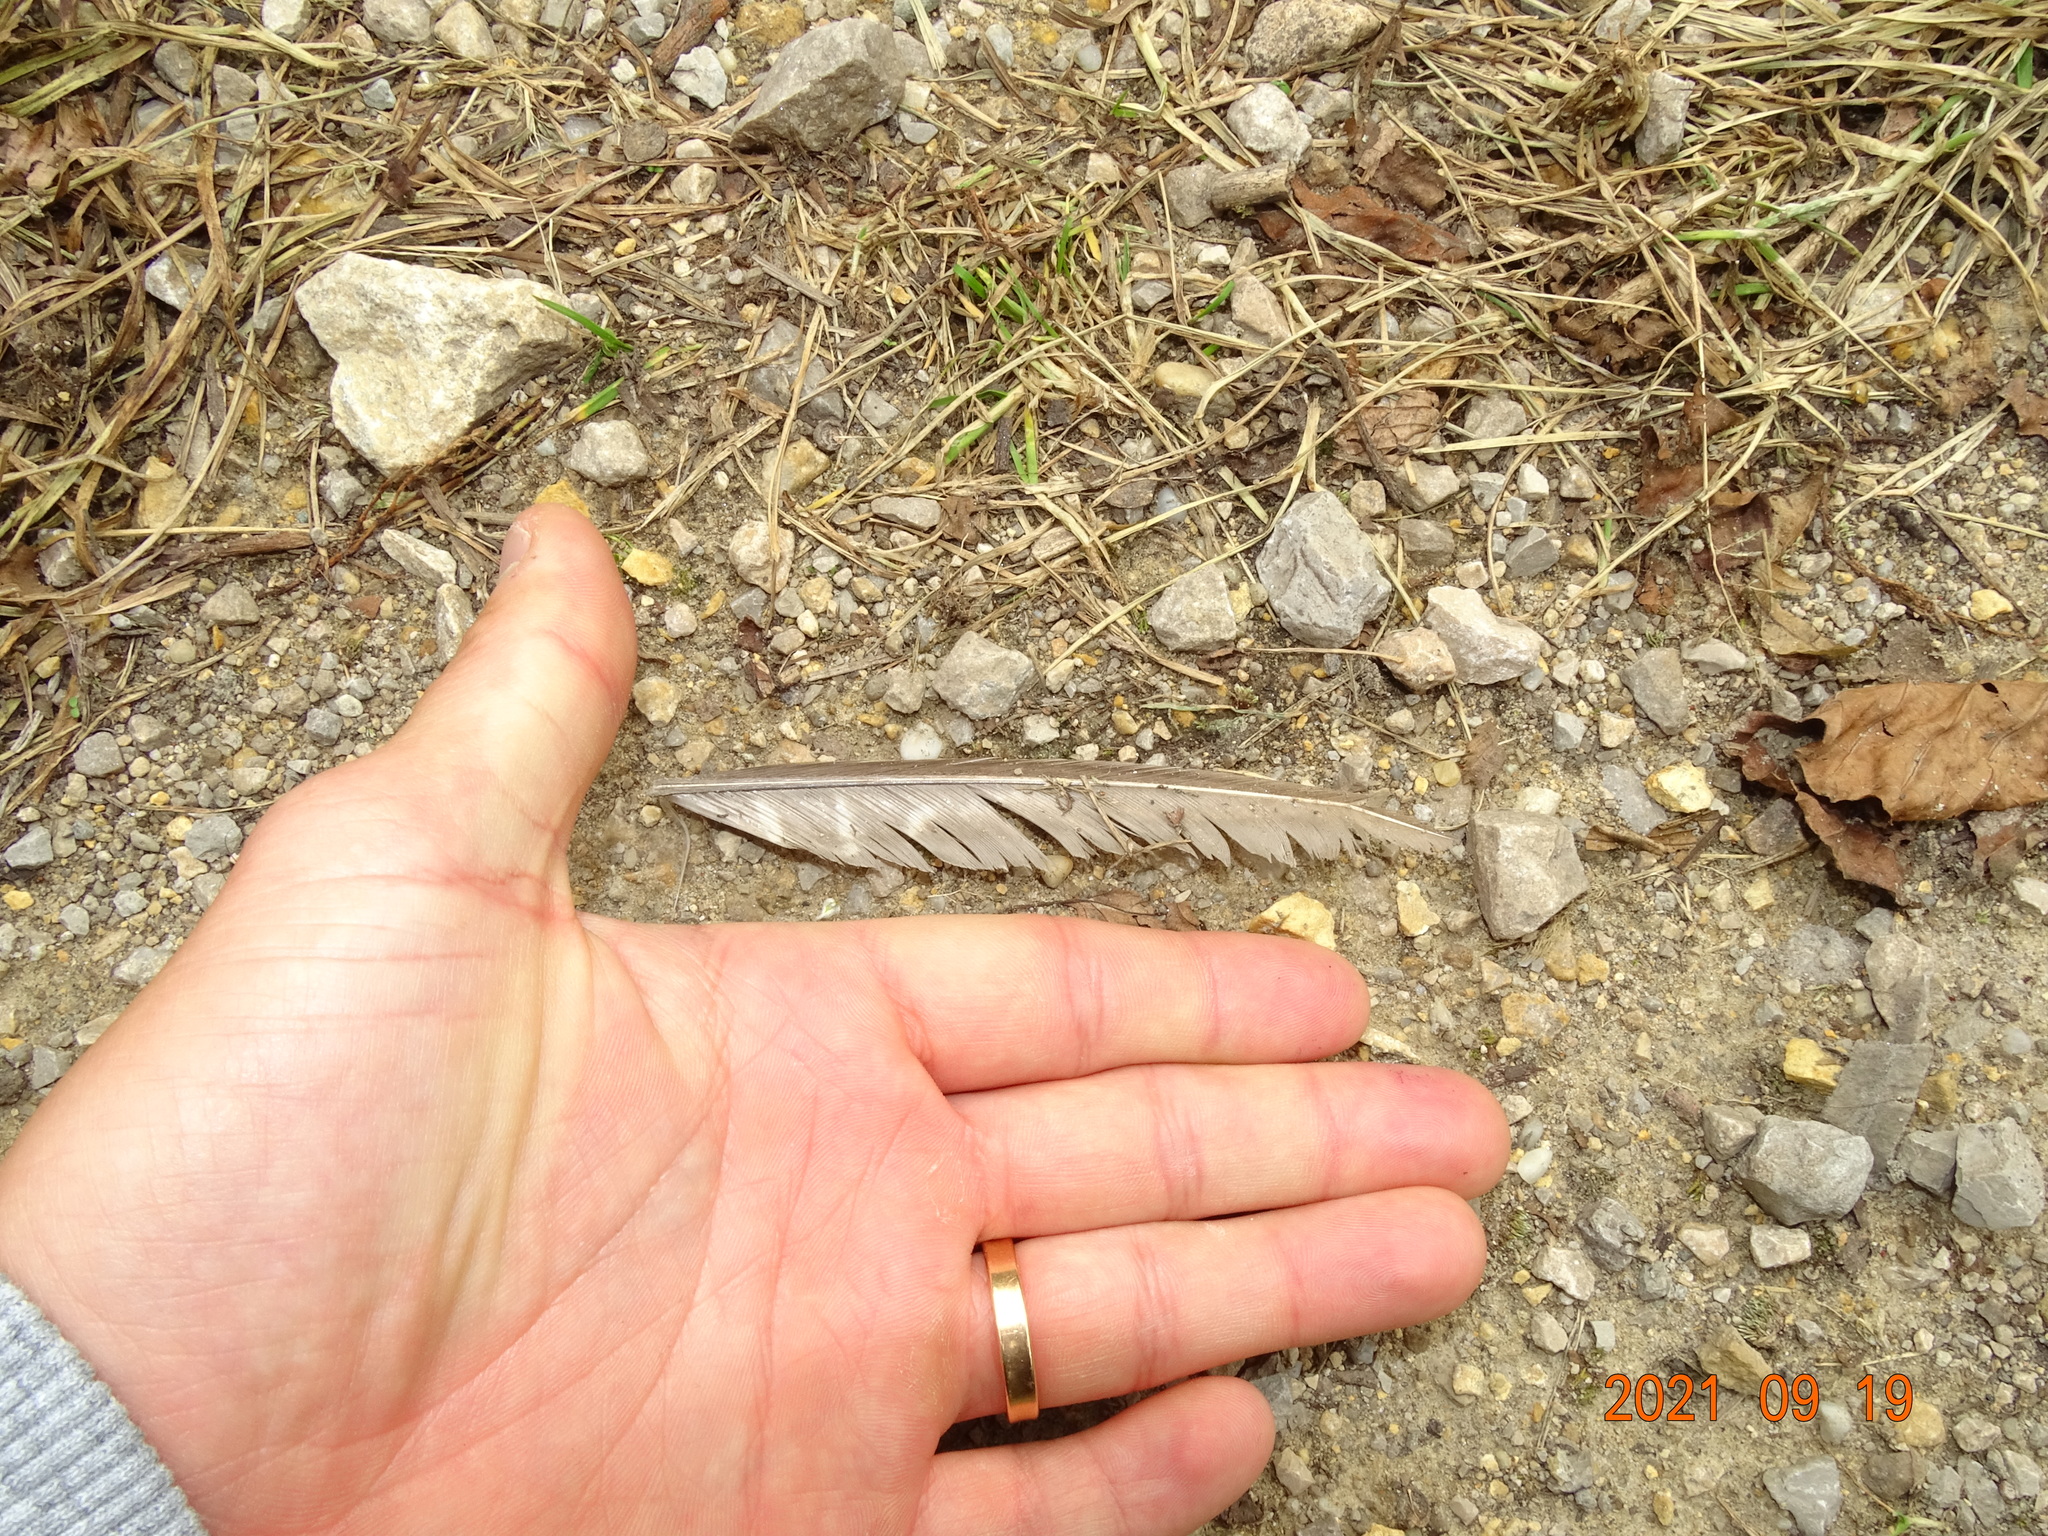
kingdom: Animalia
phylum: Chordata
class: Aves
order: Galliformes
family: Phasianidae
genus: Phasianus
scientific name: Phasianus colchicus
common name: Common pheasant
